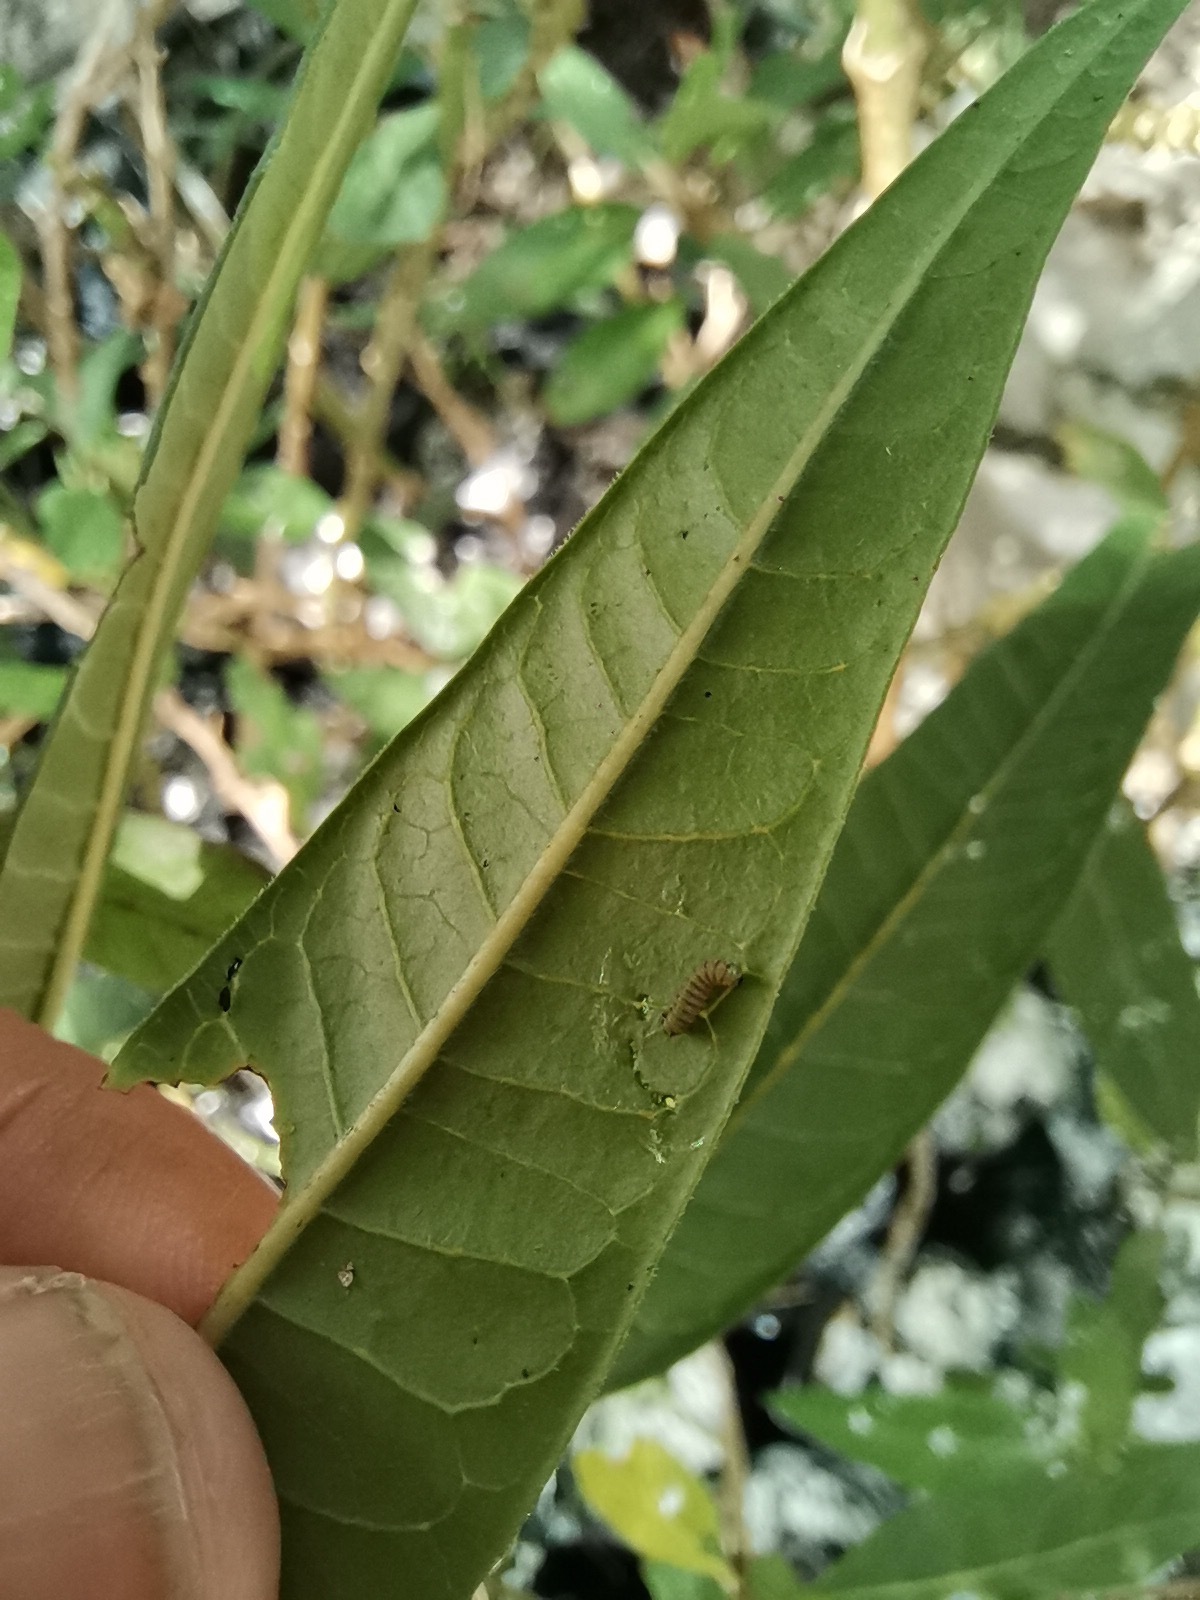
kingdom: Animalia
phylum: Arthropoda
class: Insecta
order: Lepidoptera
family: Nymphalidae
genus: Danaus
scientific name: Danaus plexippus
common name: Monarch
